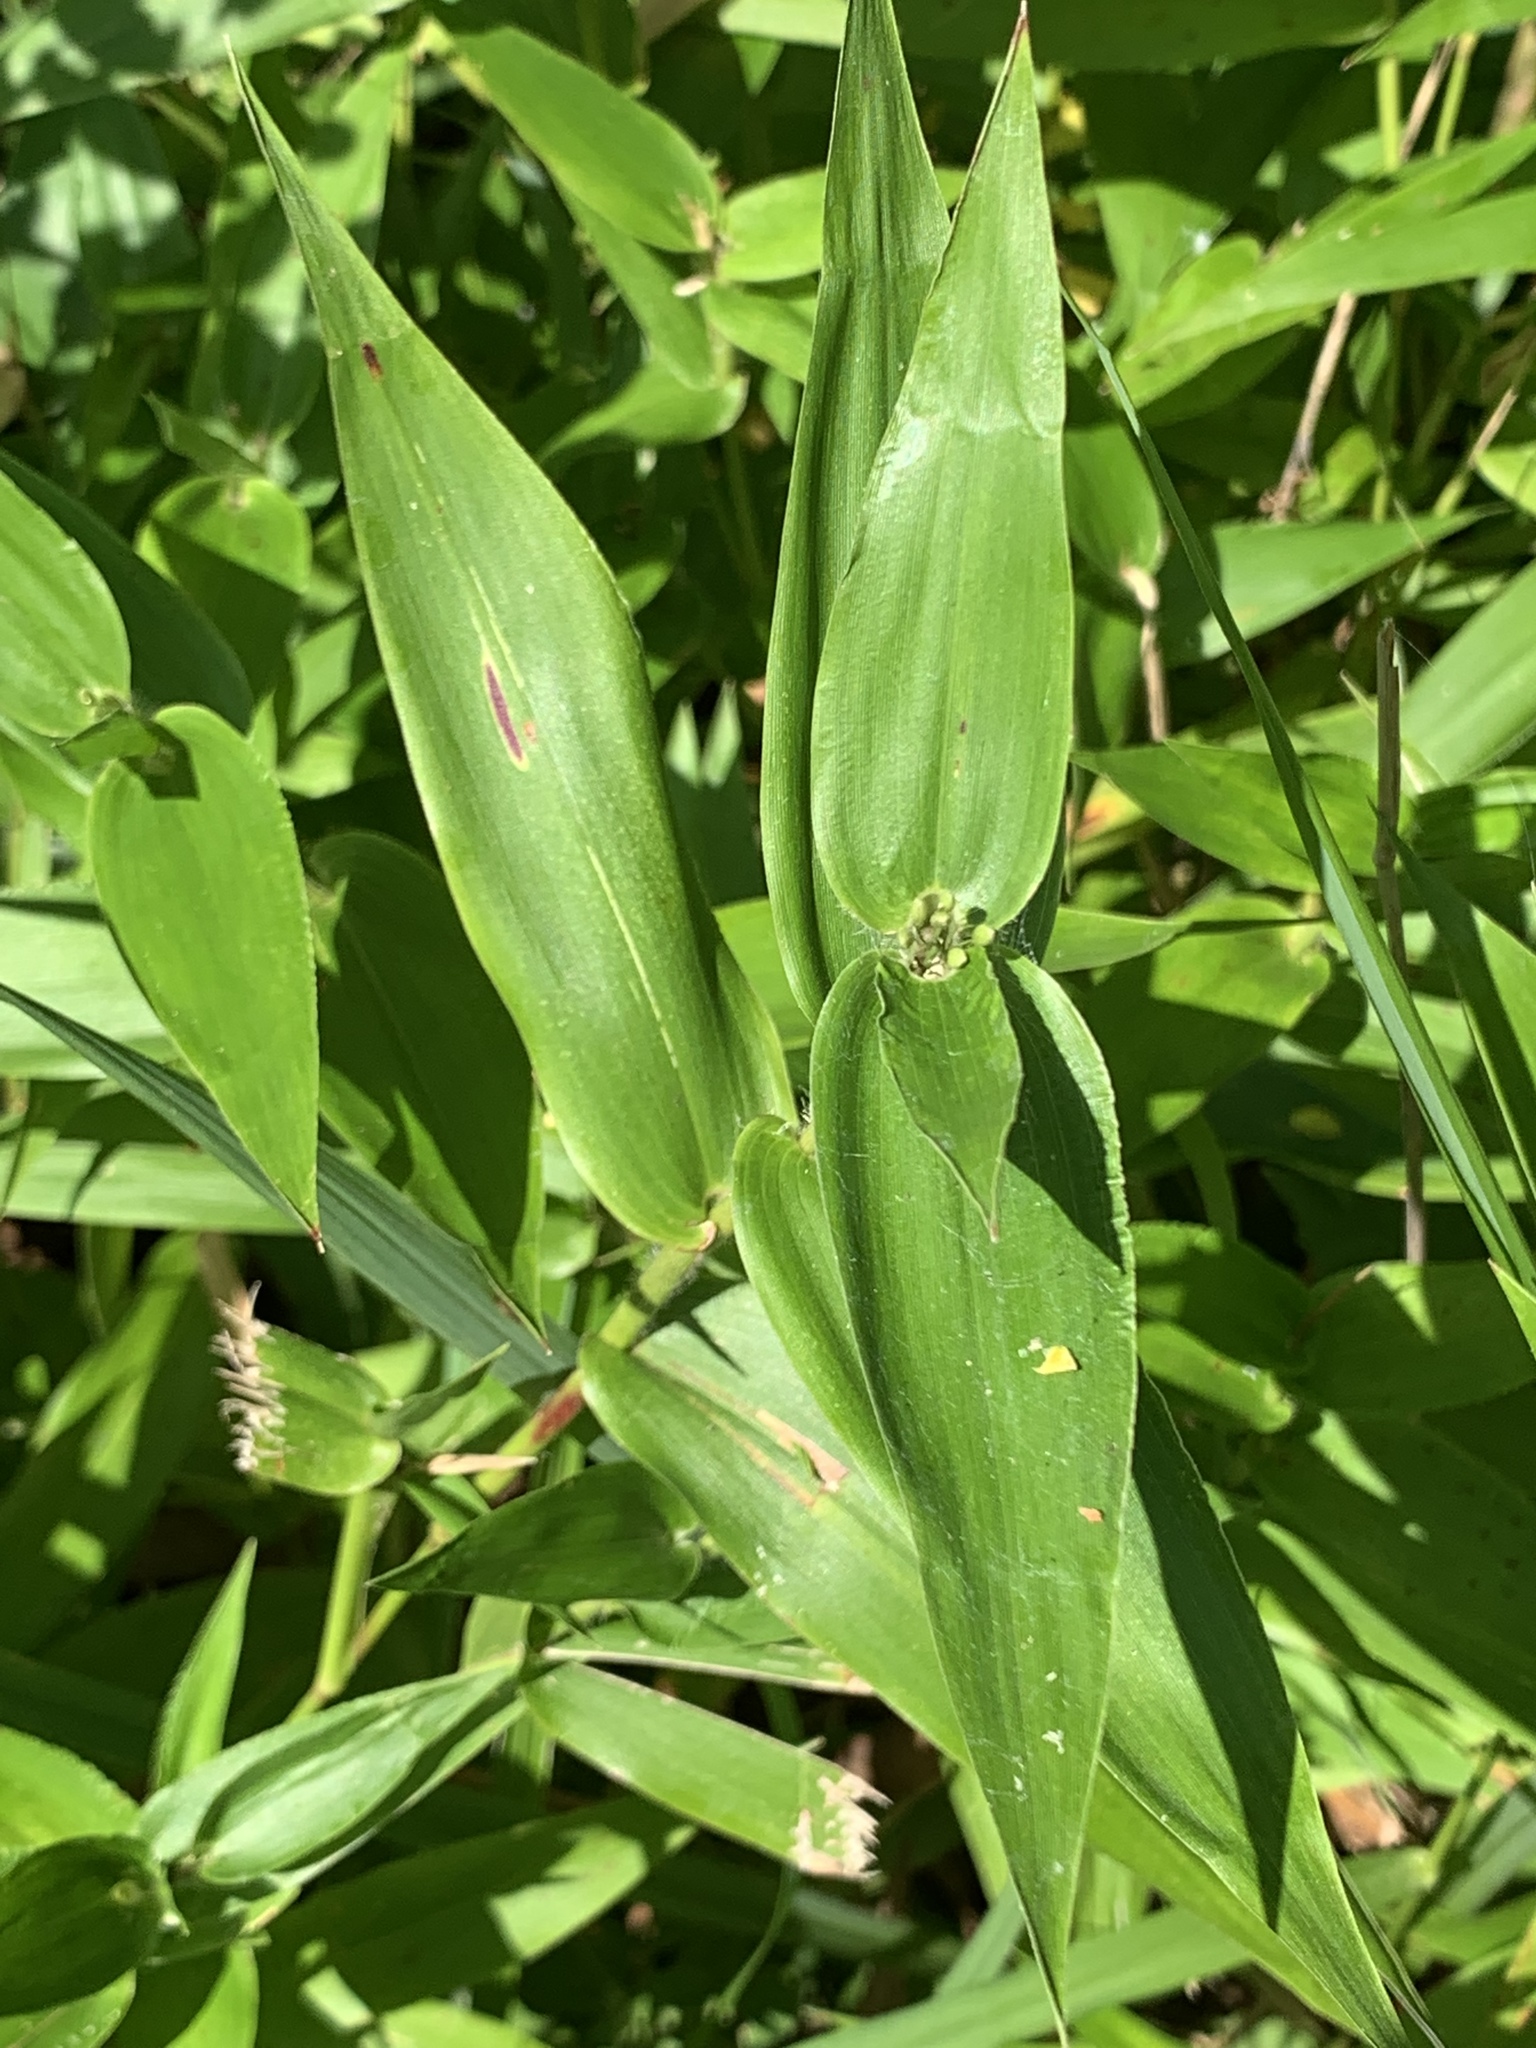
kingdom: Plantae
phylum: Tracheophyta
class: Liliopsida
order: Poales
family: Poaceae
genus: Dichanthelium
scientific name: Dichanthelium clandestinum
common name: Deer-tongue grass
